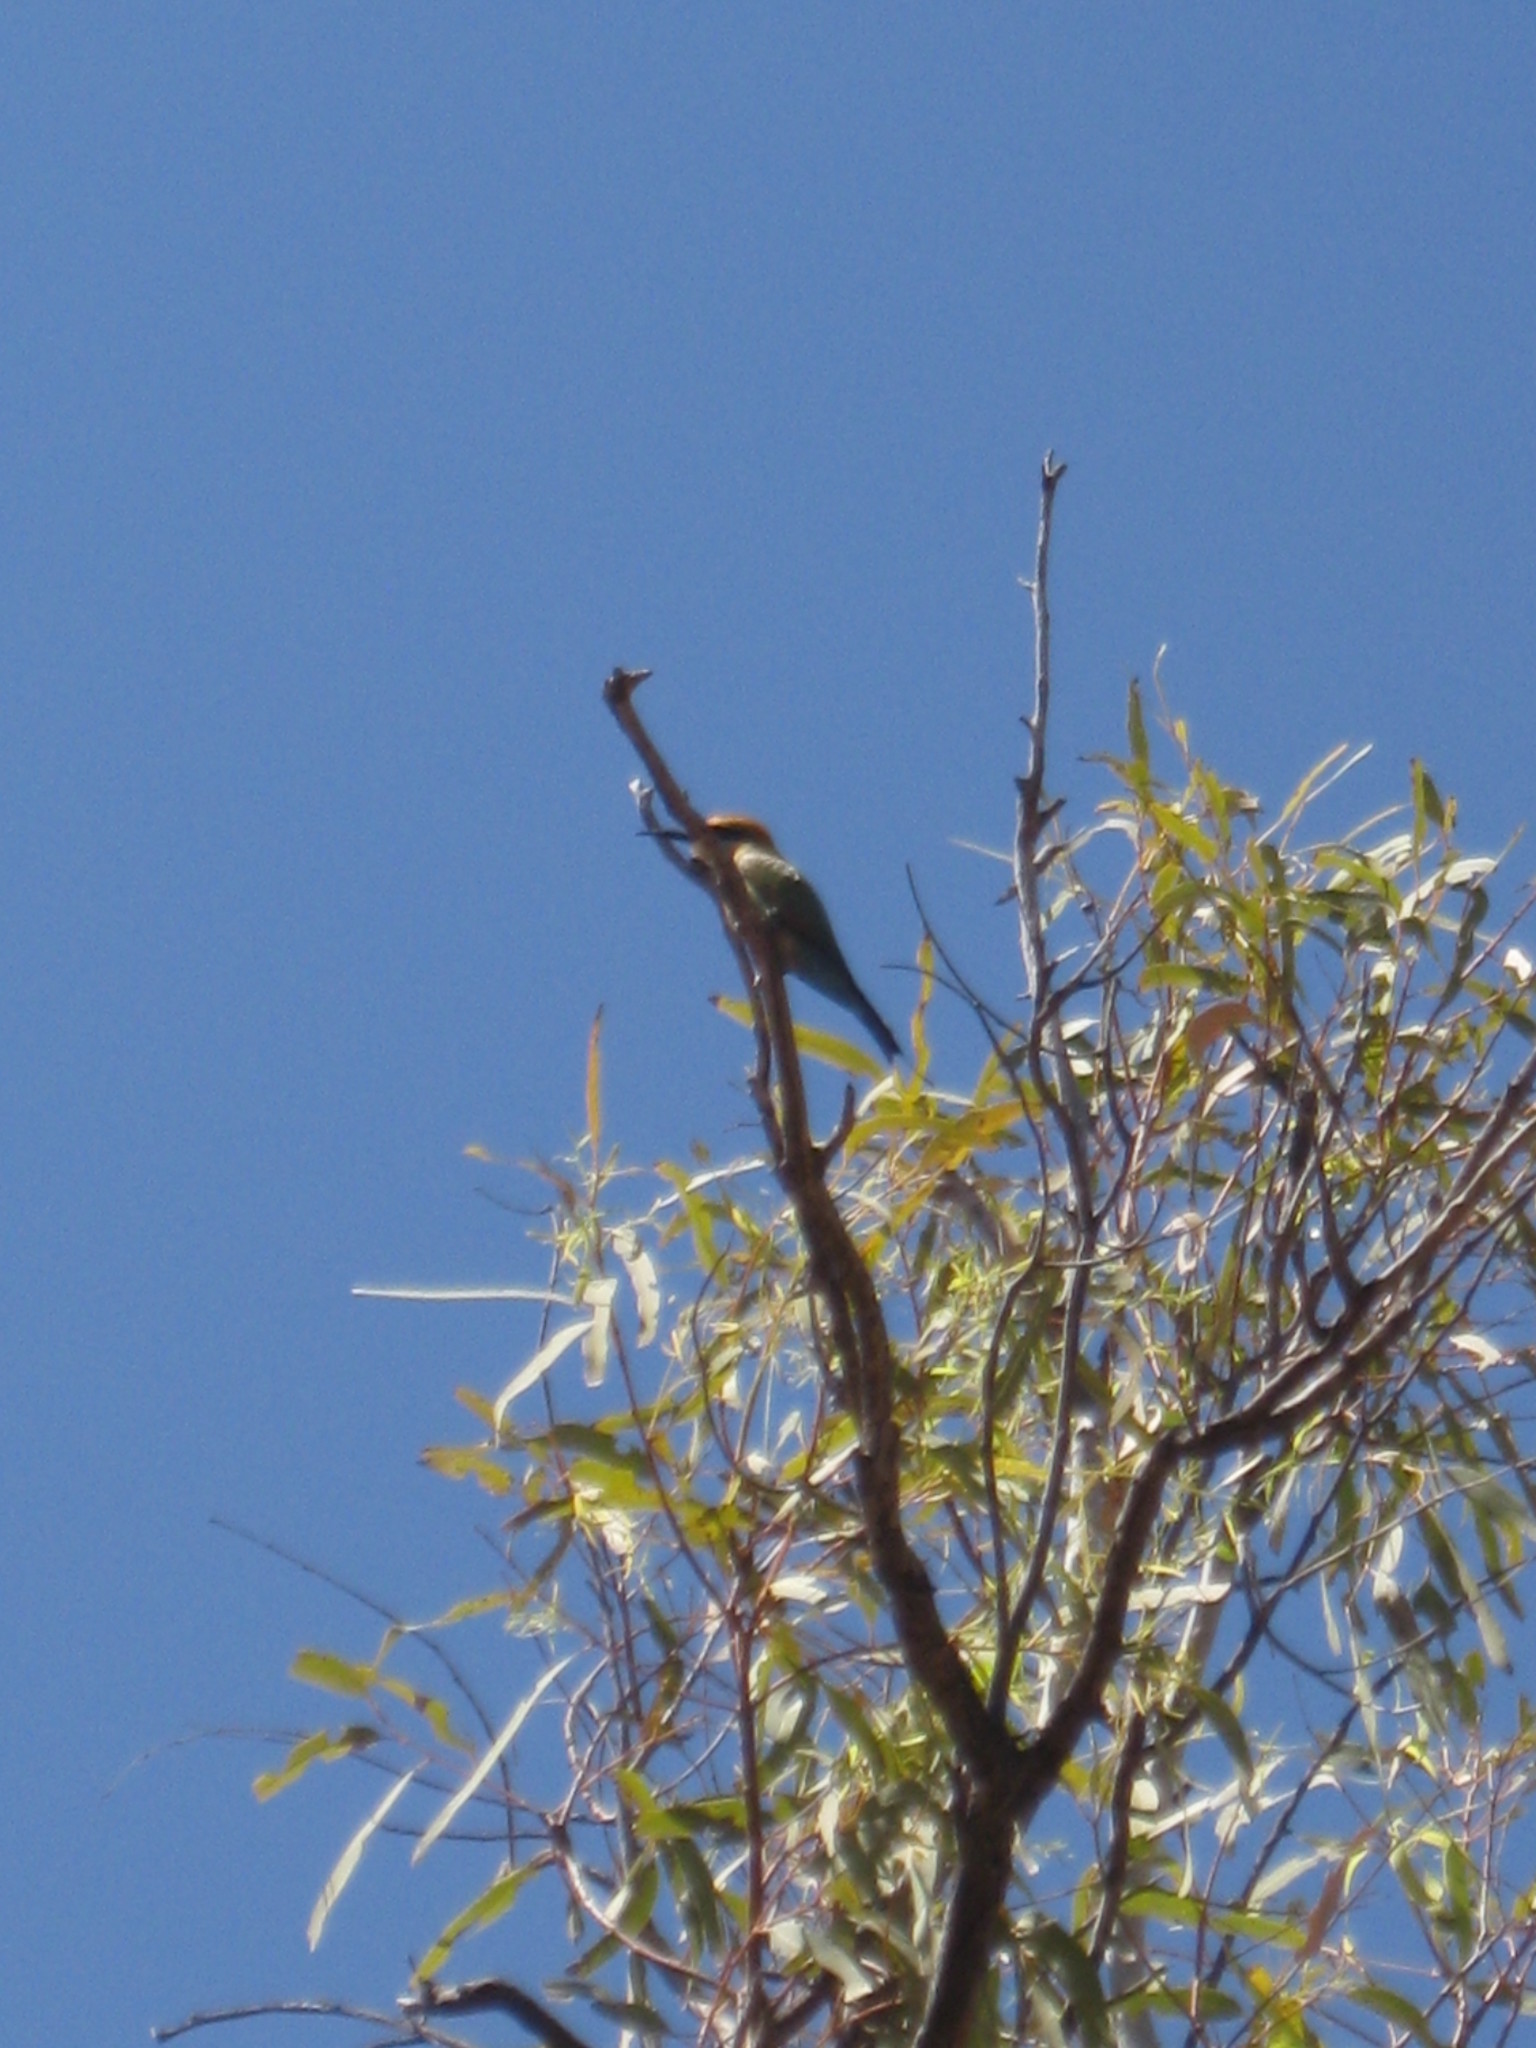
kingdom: Animalia
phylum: Chordata
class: Aves
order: Coraciiformes
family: Meropidae
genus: Merops
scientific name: Merops ornatus
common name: Rainbow bee-eater
